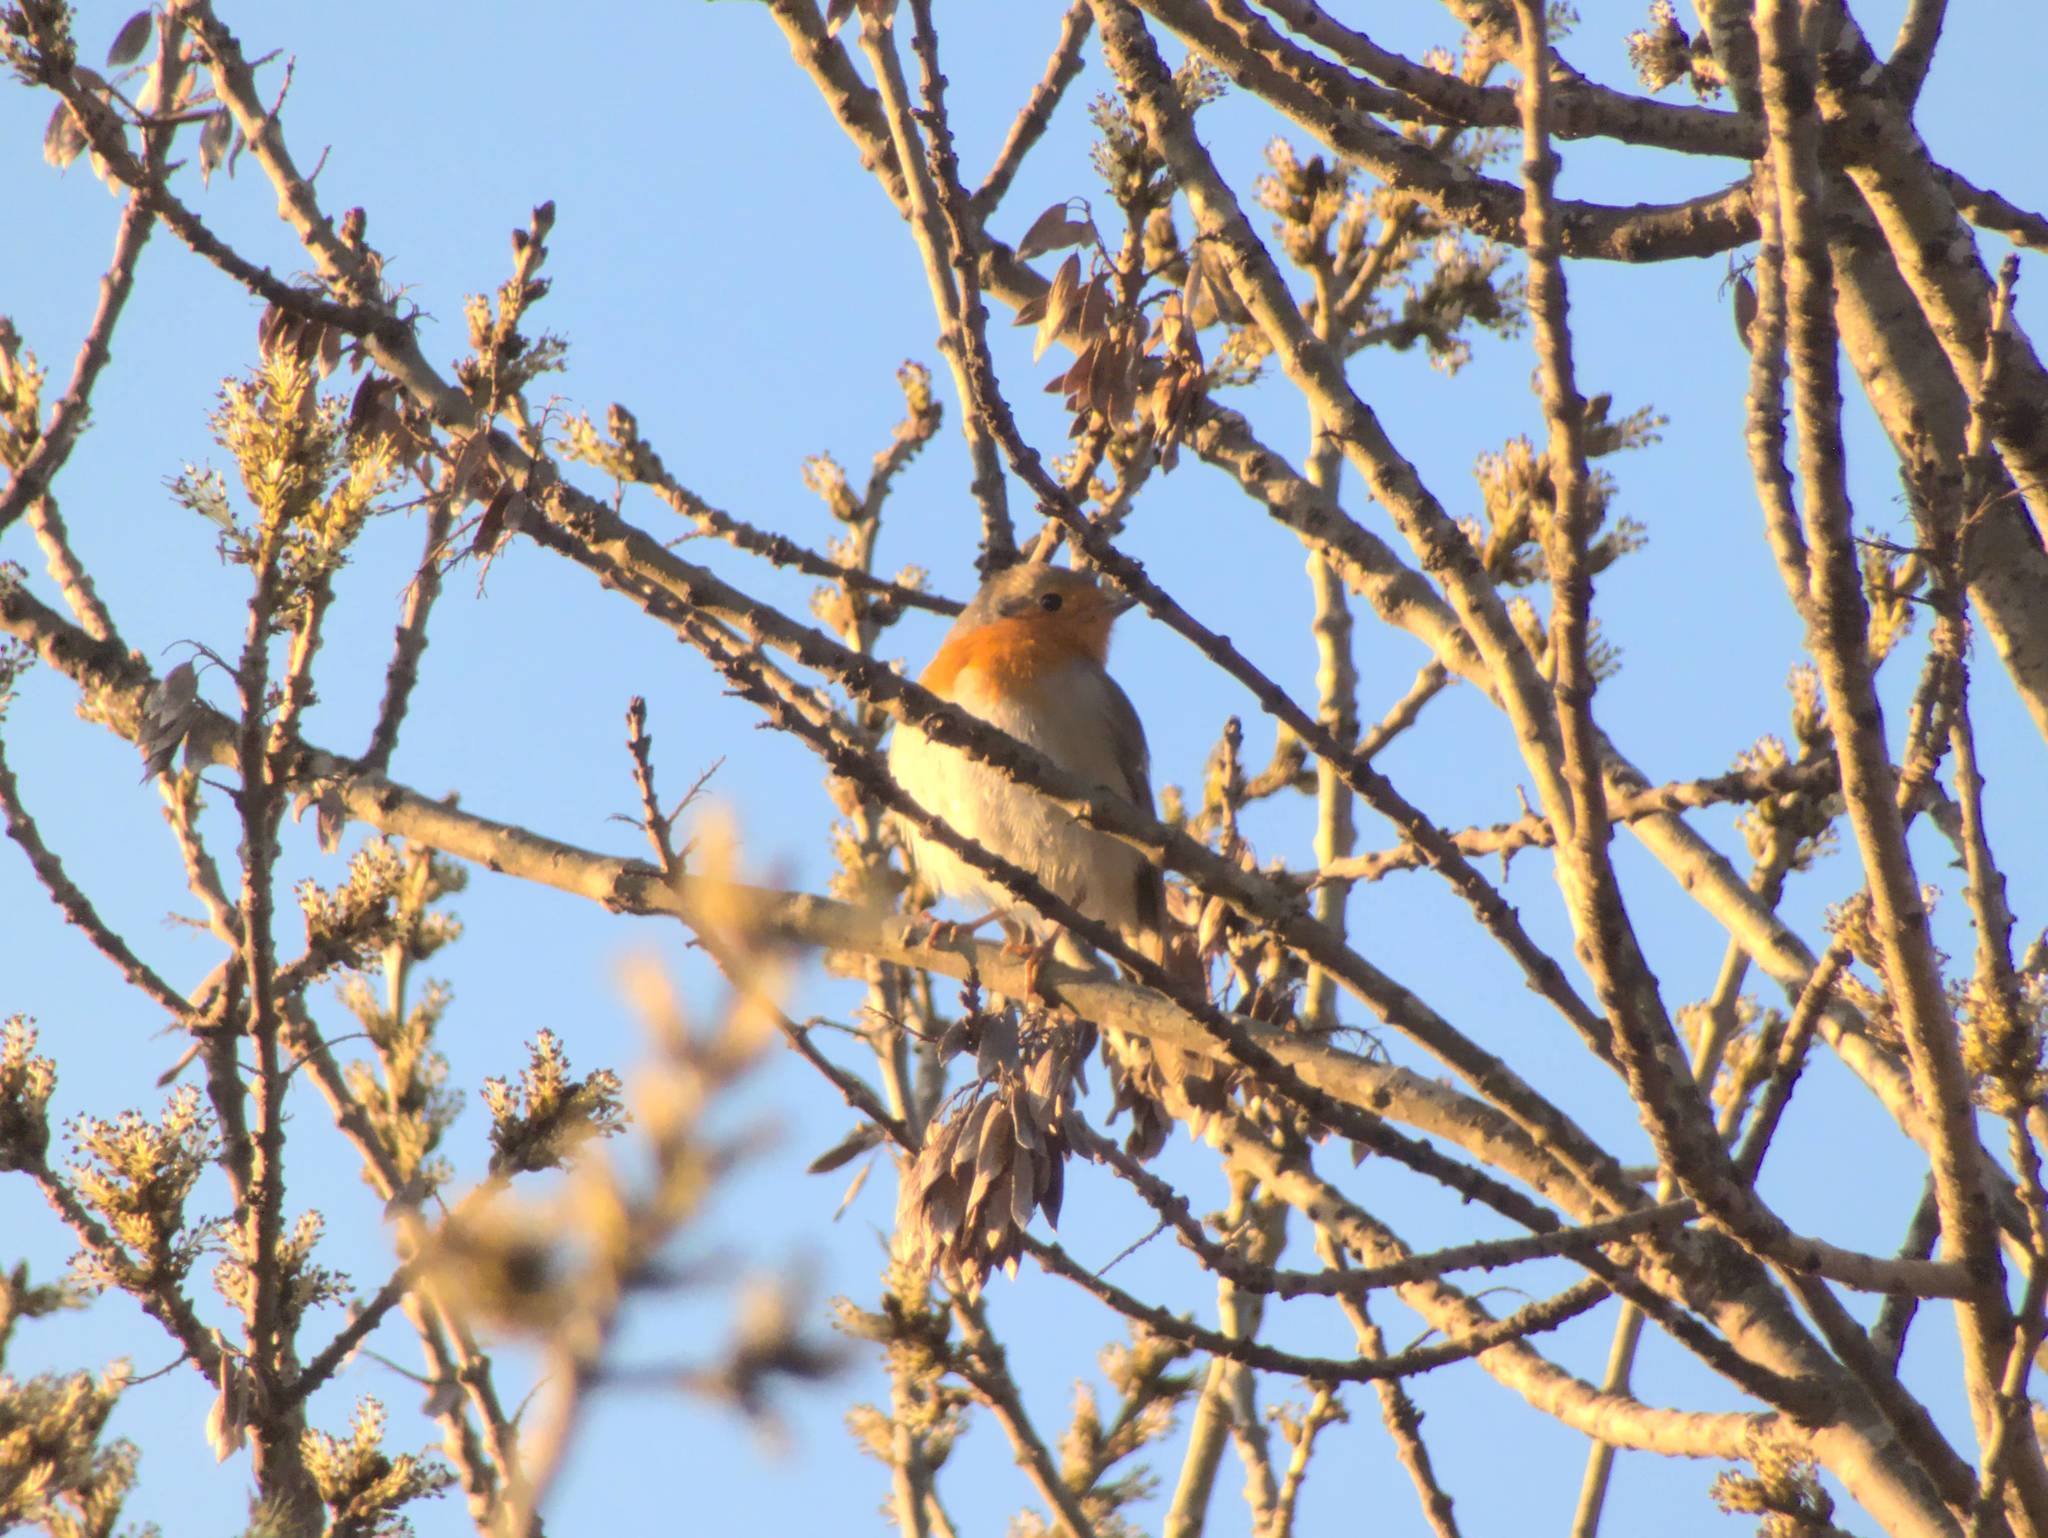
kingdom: Animalia
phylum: Chordata
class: Aves
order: Passeriformes
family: Muscicapidae
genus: Erithacus
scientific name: Erithacus rubecula
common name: European robin
